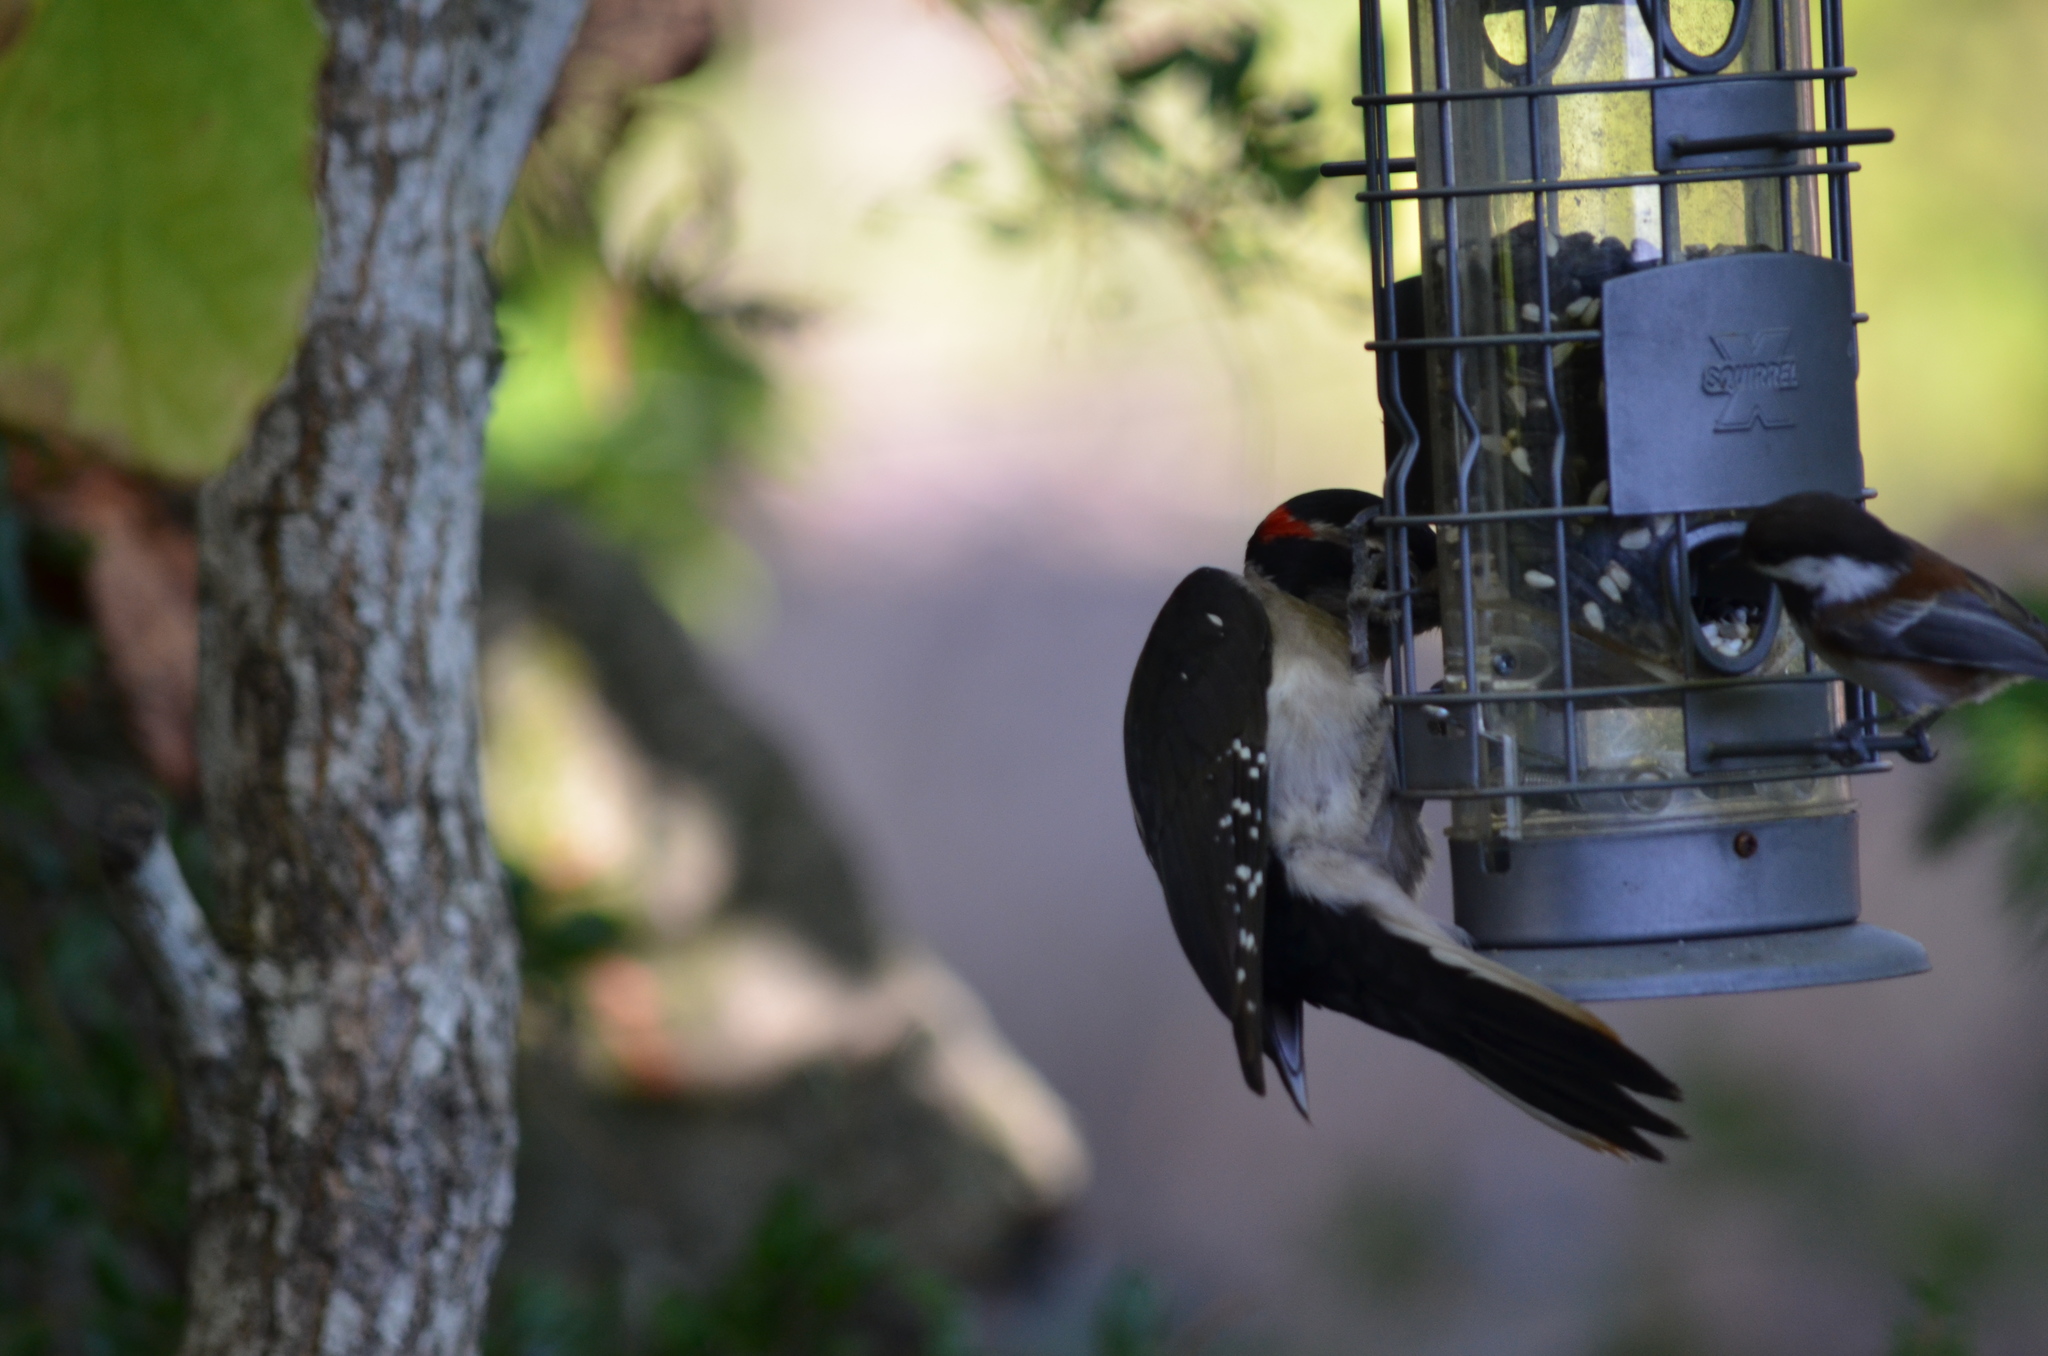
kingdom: Animalia
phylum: Chordata
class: Aves
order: Piciformes
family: Picidae
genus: Leuconotopicus
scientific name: Leuconotopicus villosus
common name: Hairy woodpecker
